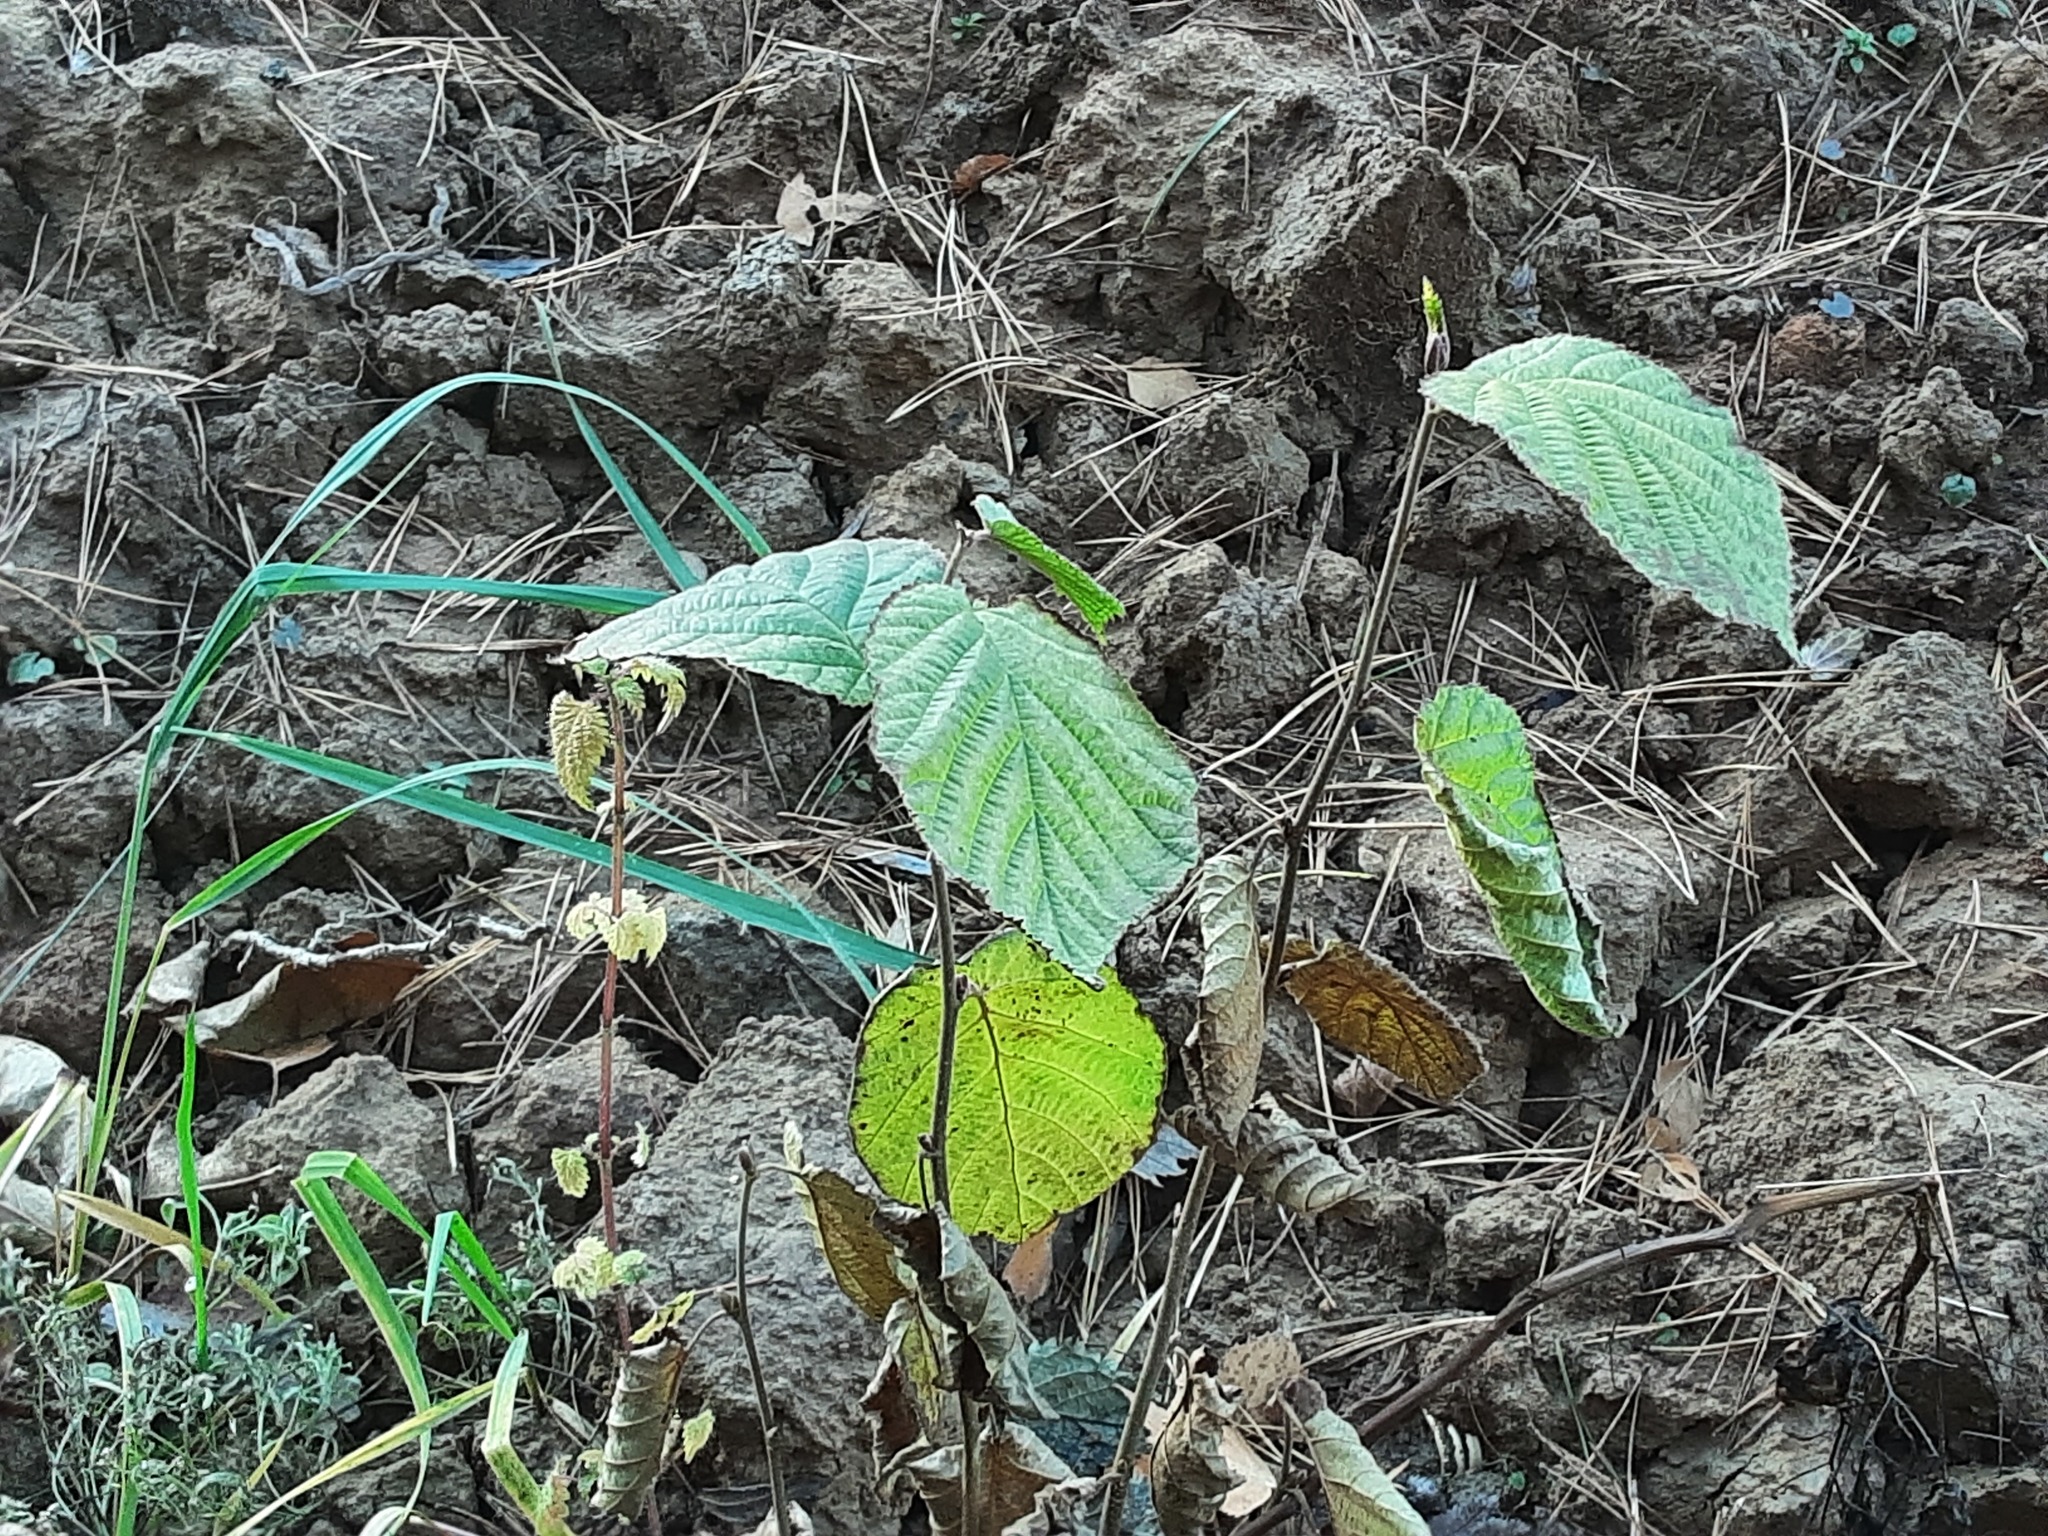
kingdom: Plantae
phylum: Tracheophyta
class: Magnoliopsida
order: Fagales
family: Betulaceae
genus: Corylus
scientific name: Corylus avellana
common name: European hazel
